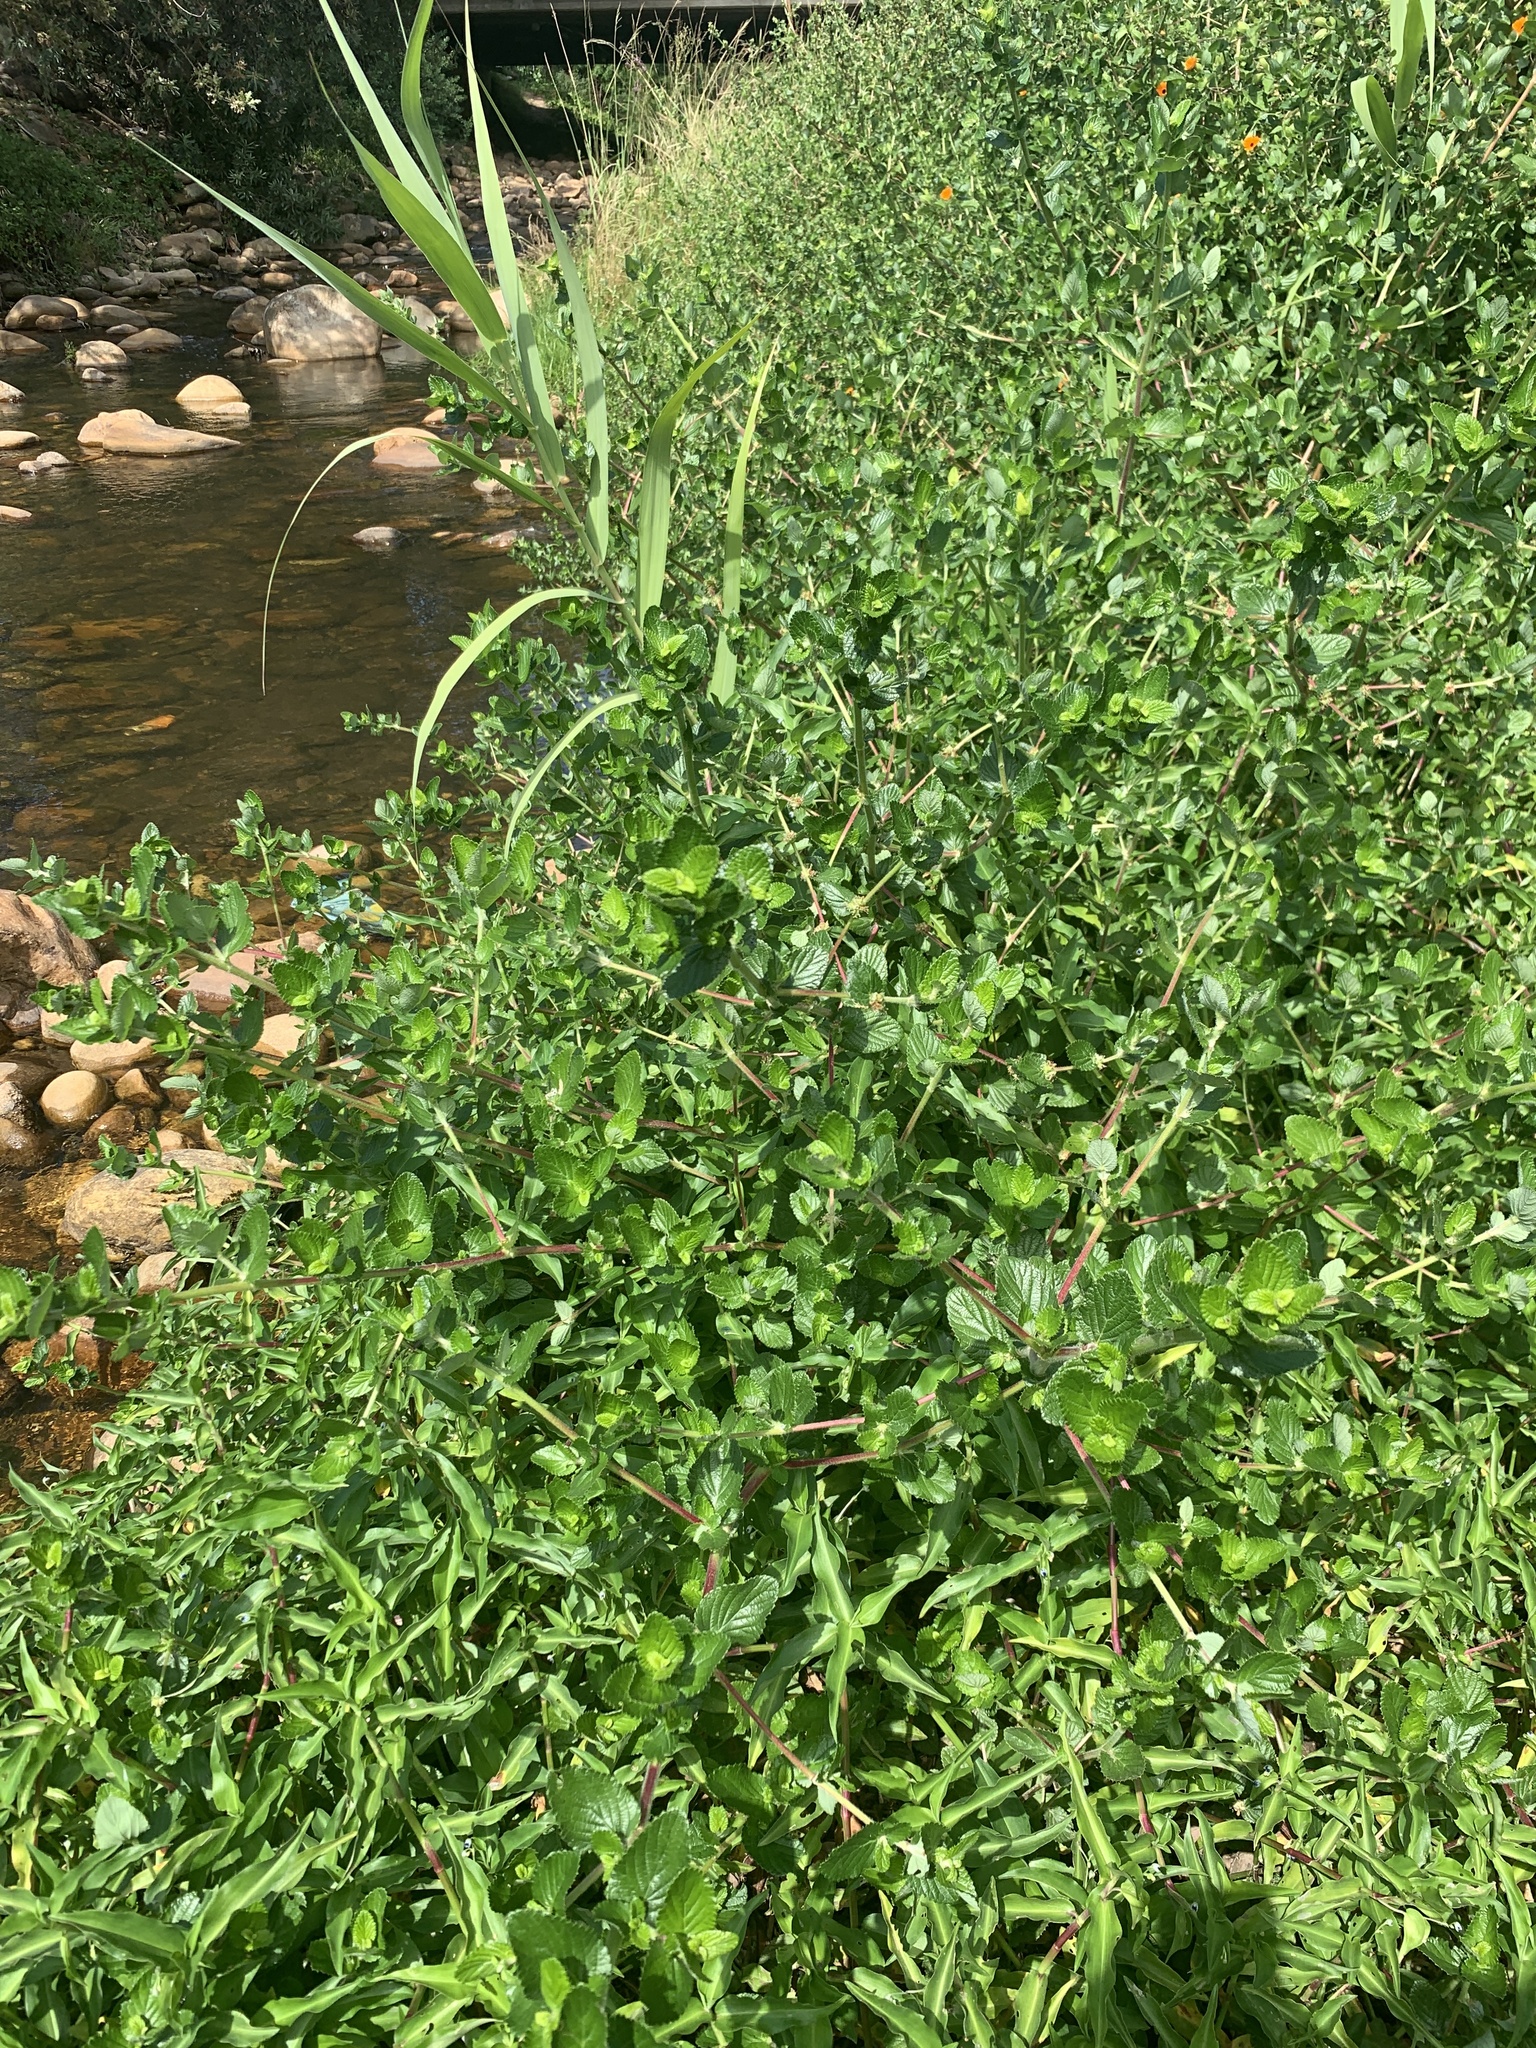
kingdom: Plantae
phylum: Tracheophyta
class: Magnoliopsida
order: Rosales
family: Rosaceae
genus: Cliffortia
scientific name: Cliffortia odorata
